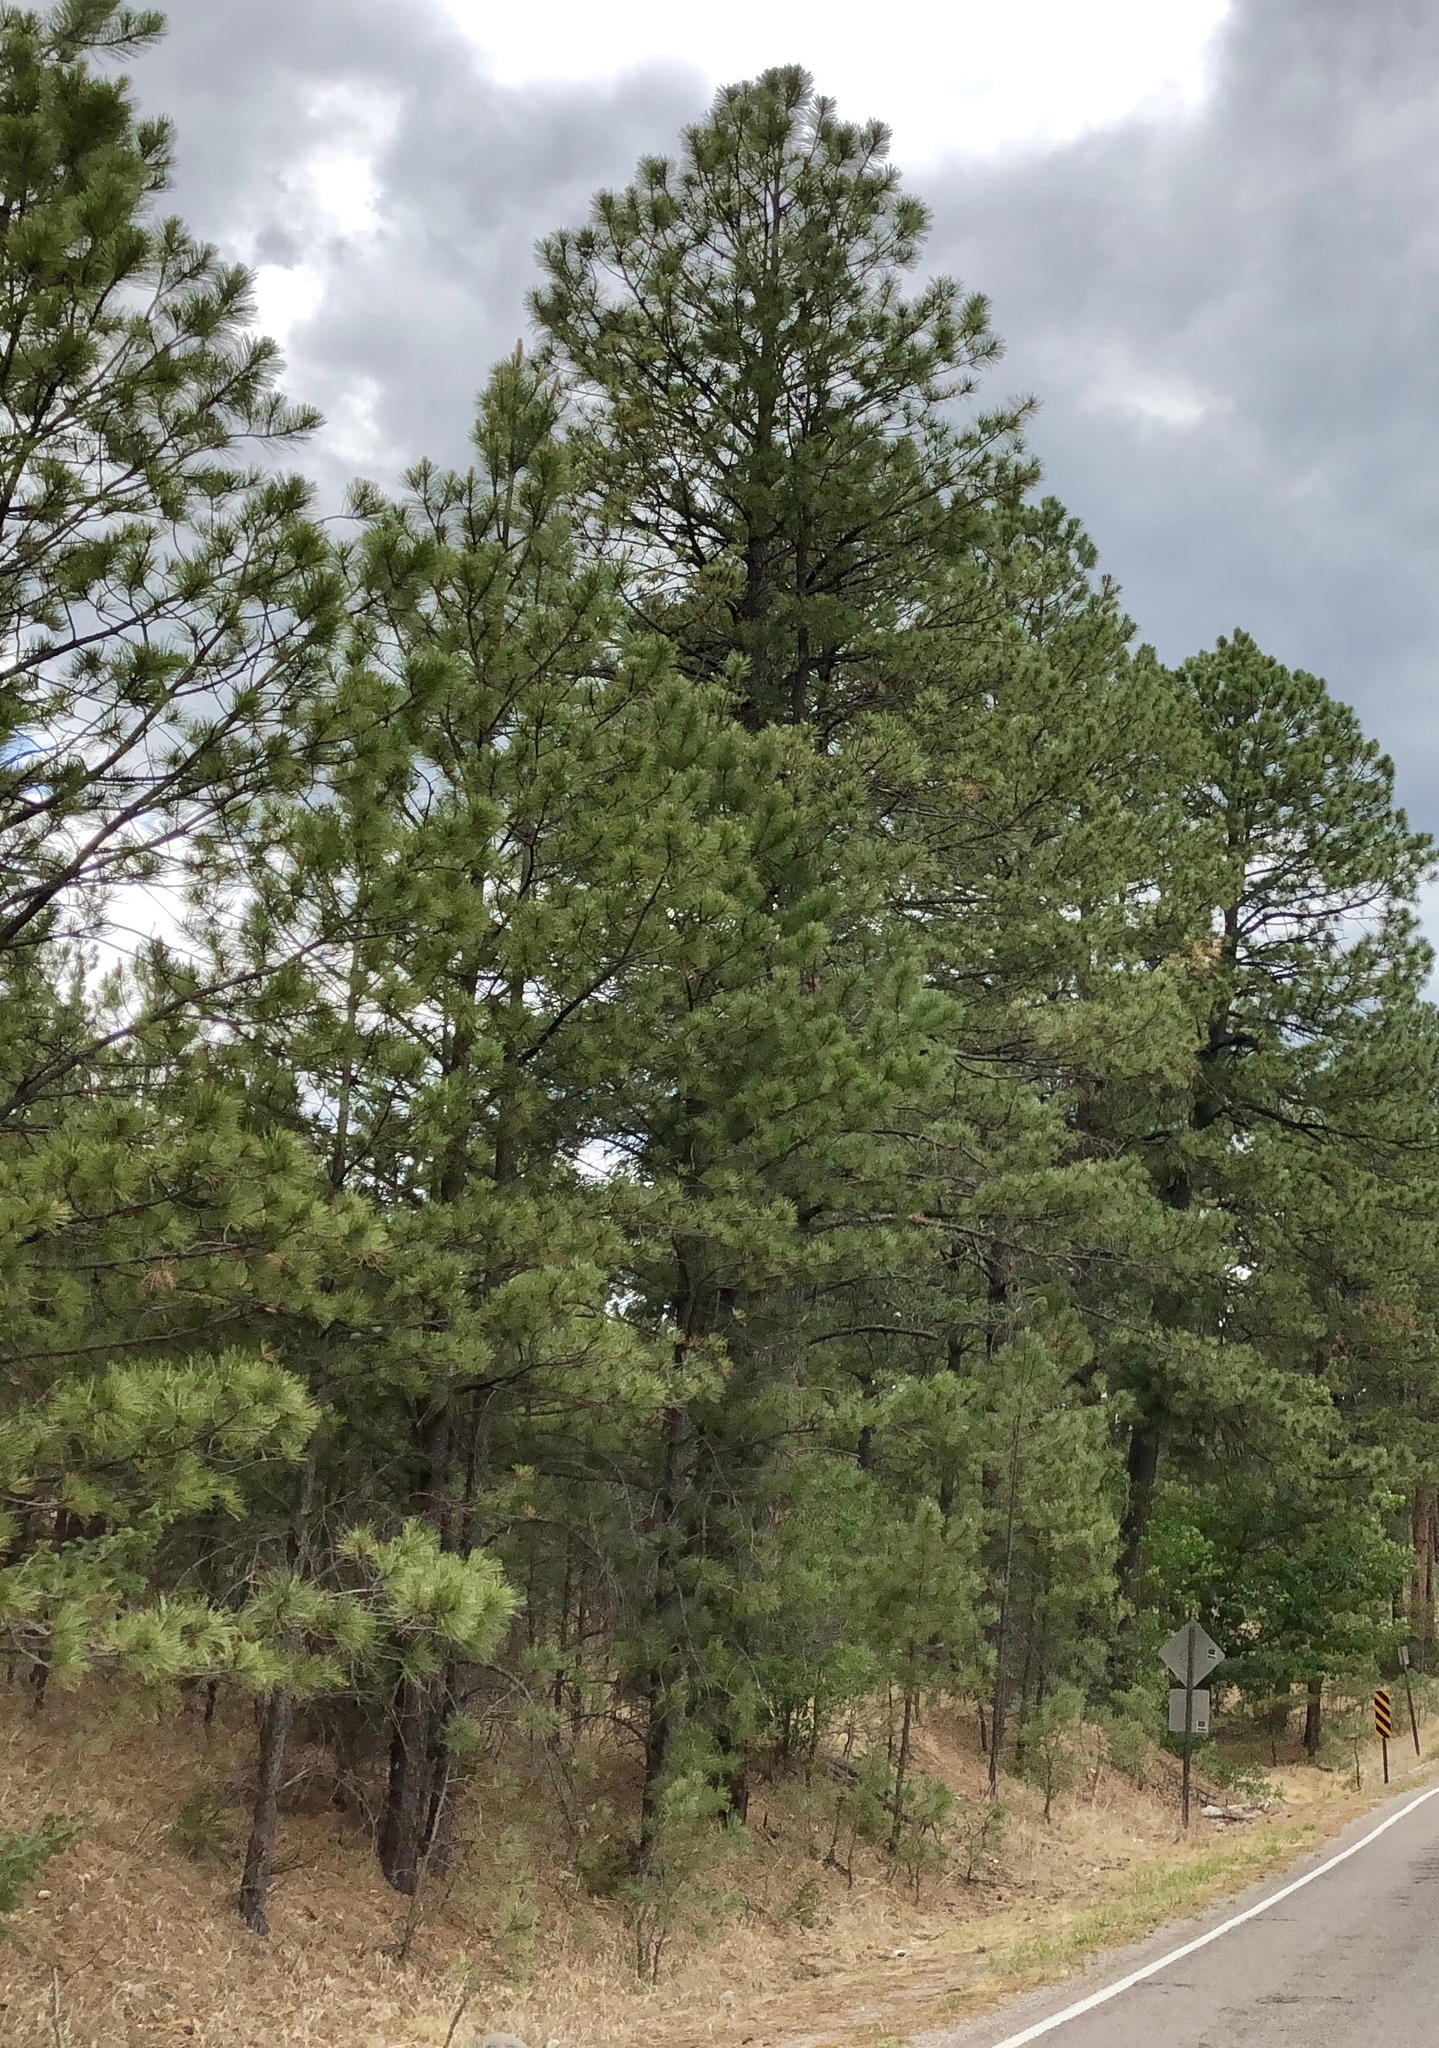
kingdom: Plantae
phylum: Tracheophyta
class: Pinopsida
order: Pinales
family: Pinaceae
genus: Pinus
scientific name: Pinus ponderosa
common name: Western yellow-pine
